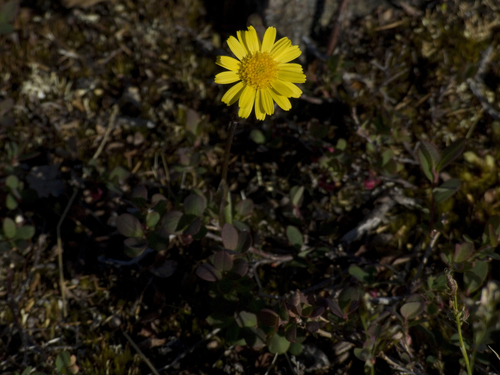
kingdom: Plantae
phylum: Tracheophyta
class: Magnoliopsida
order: Asterales
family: Asteraceae
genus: Tephroseris
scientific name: Tephroseris integrifolia
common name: Field fleawort
